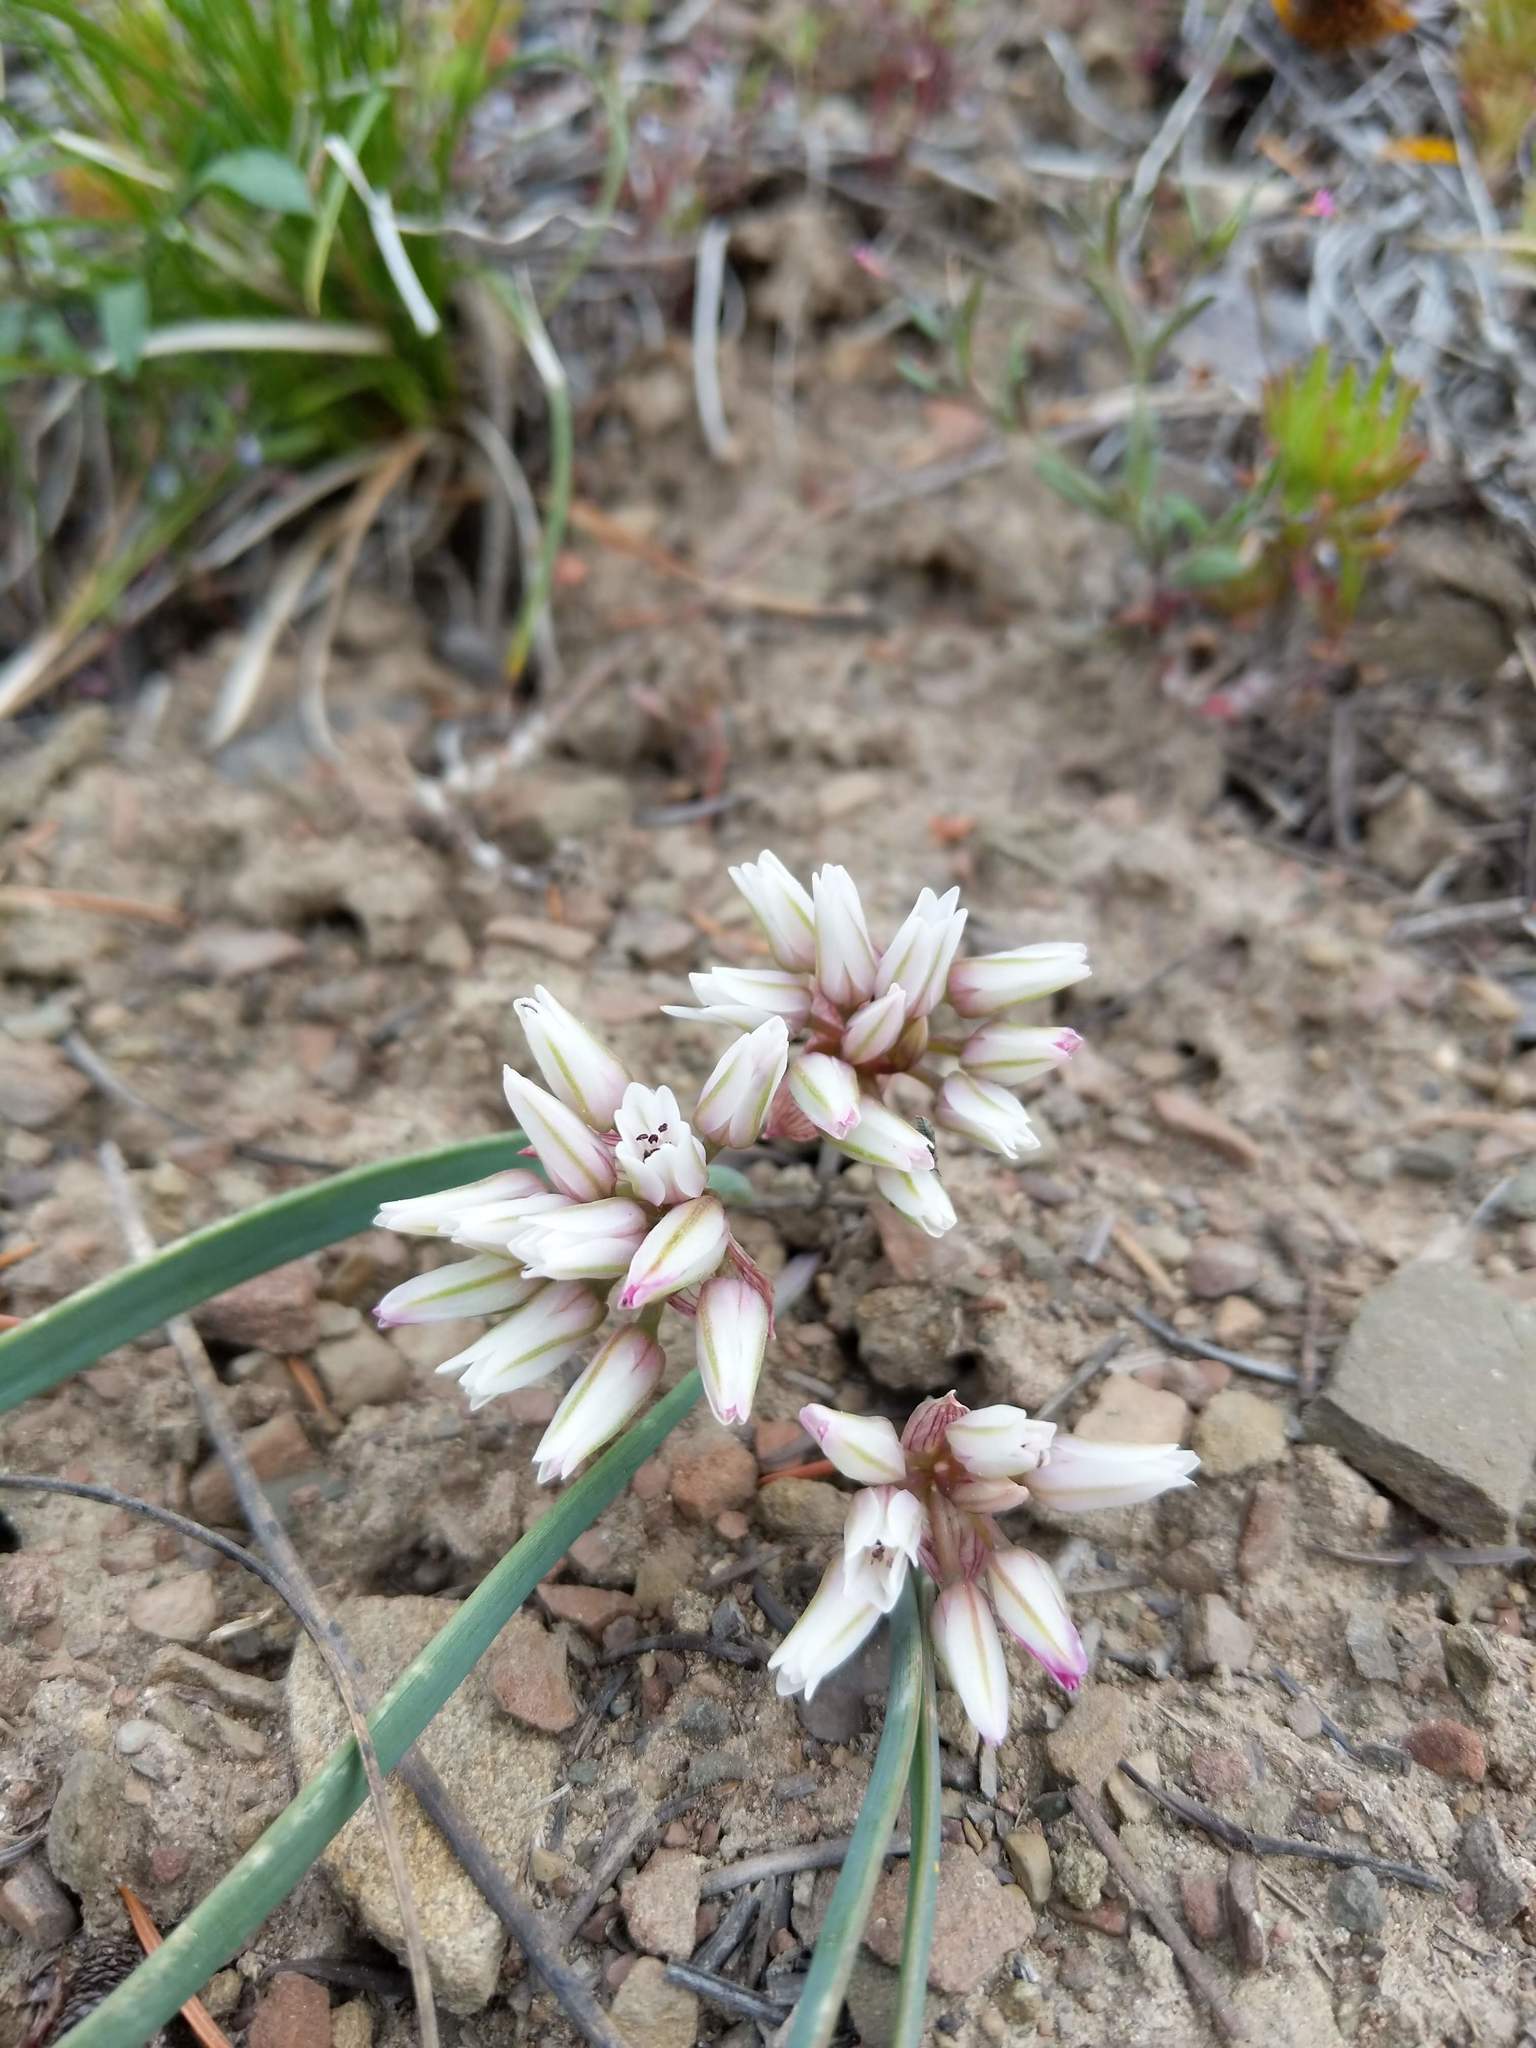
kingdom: Plantae
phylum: Tracheophyta
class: Liliopsida
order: Asparagales
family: Amaryllidaceae
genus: Allium
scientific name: Allium crenulatum
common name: Olympic onion
